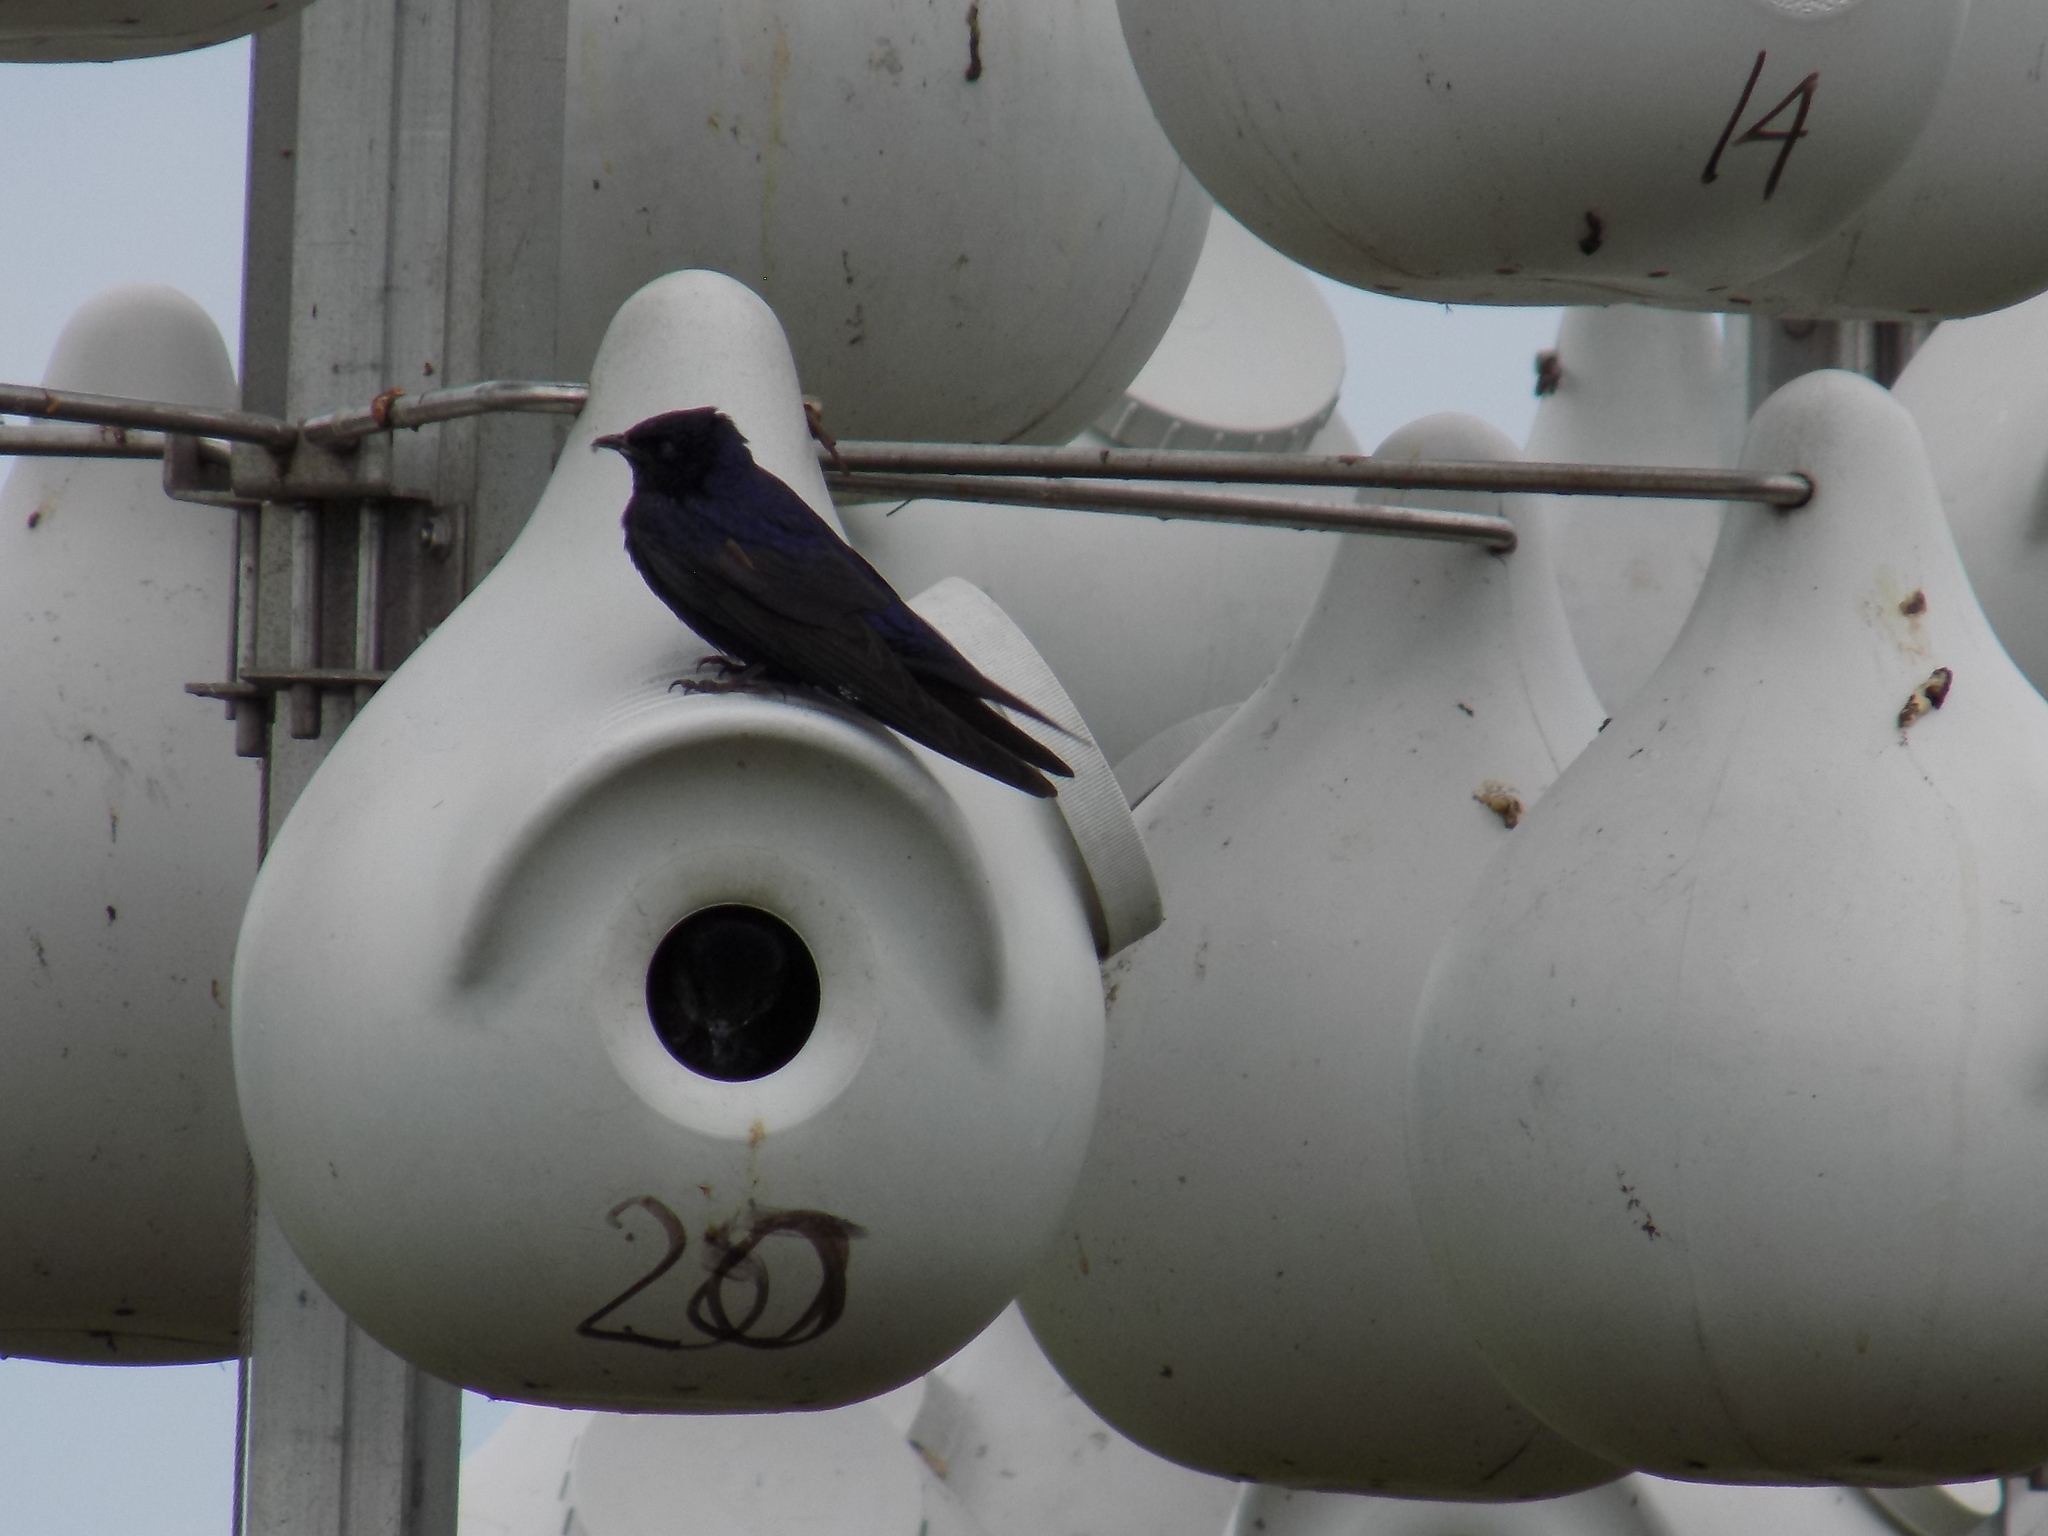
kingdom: Animalia
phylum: Chordata
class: Aves
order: Passeriformes
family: Hirundinidae
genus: Progne
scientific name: Progne subis
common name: Purple martin
